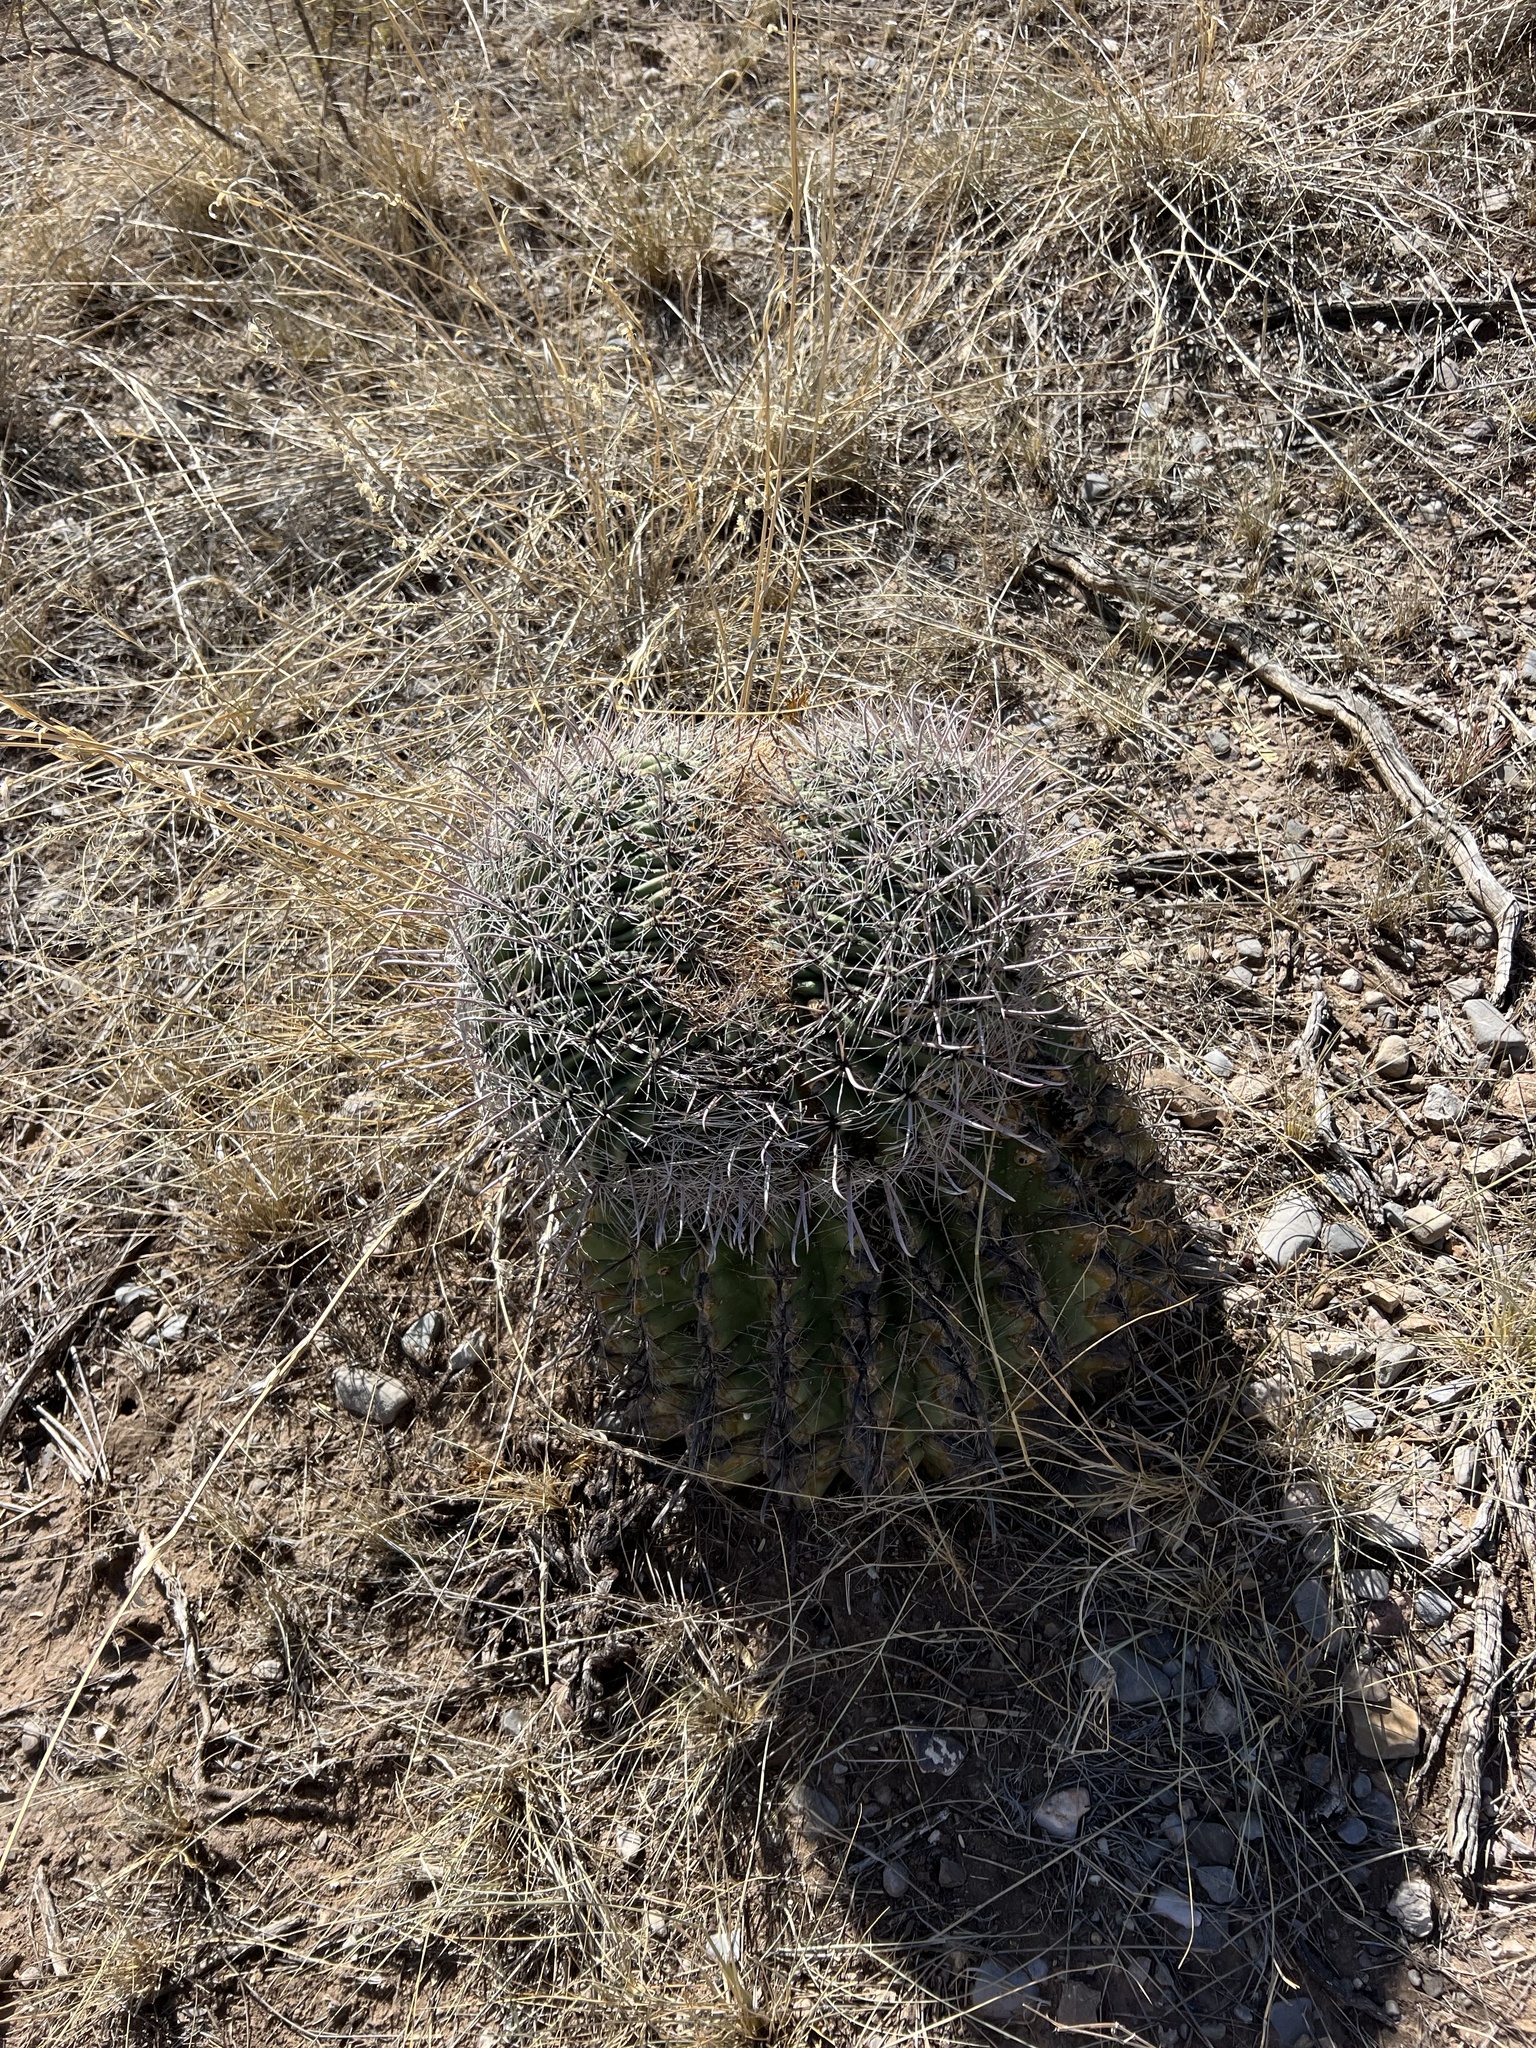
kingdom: Plantae
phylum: Tracheophyta
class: Magnoliopsida
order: Caryophyllales
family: Cactaceae
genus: Ferocactus
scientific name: Ferocactus wislizeni
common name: Candy barrel cactus
